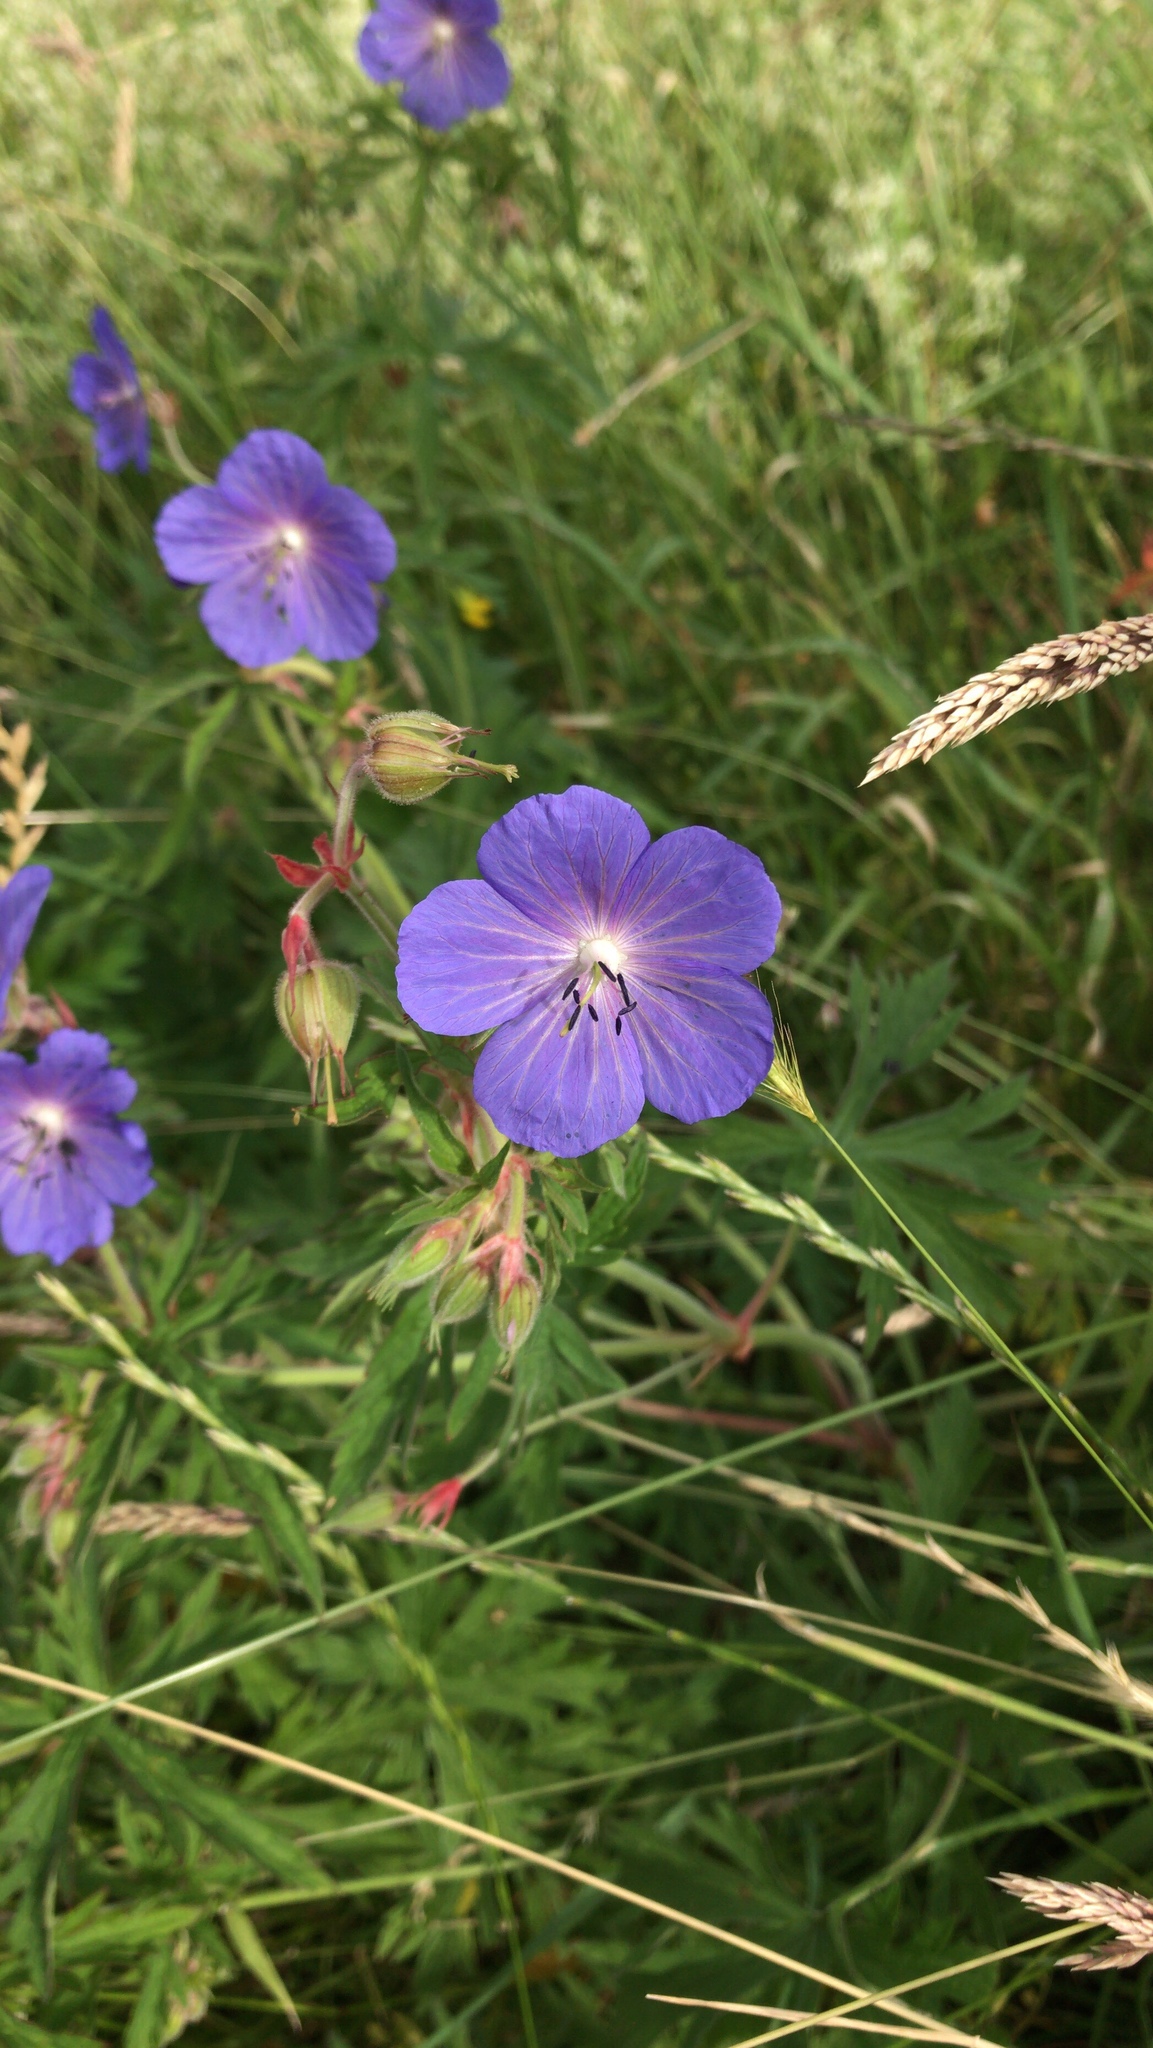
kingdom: Plantae
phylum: Tracheophyta
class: Magnoliopsida
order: Geraniales
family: Geraniaceae
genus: Geranium
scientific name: Geranium pratense
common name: Meadow crane's-bill
